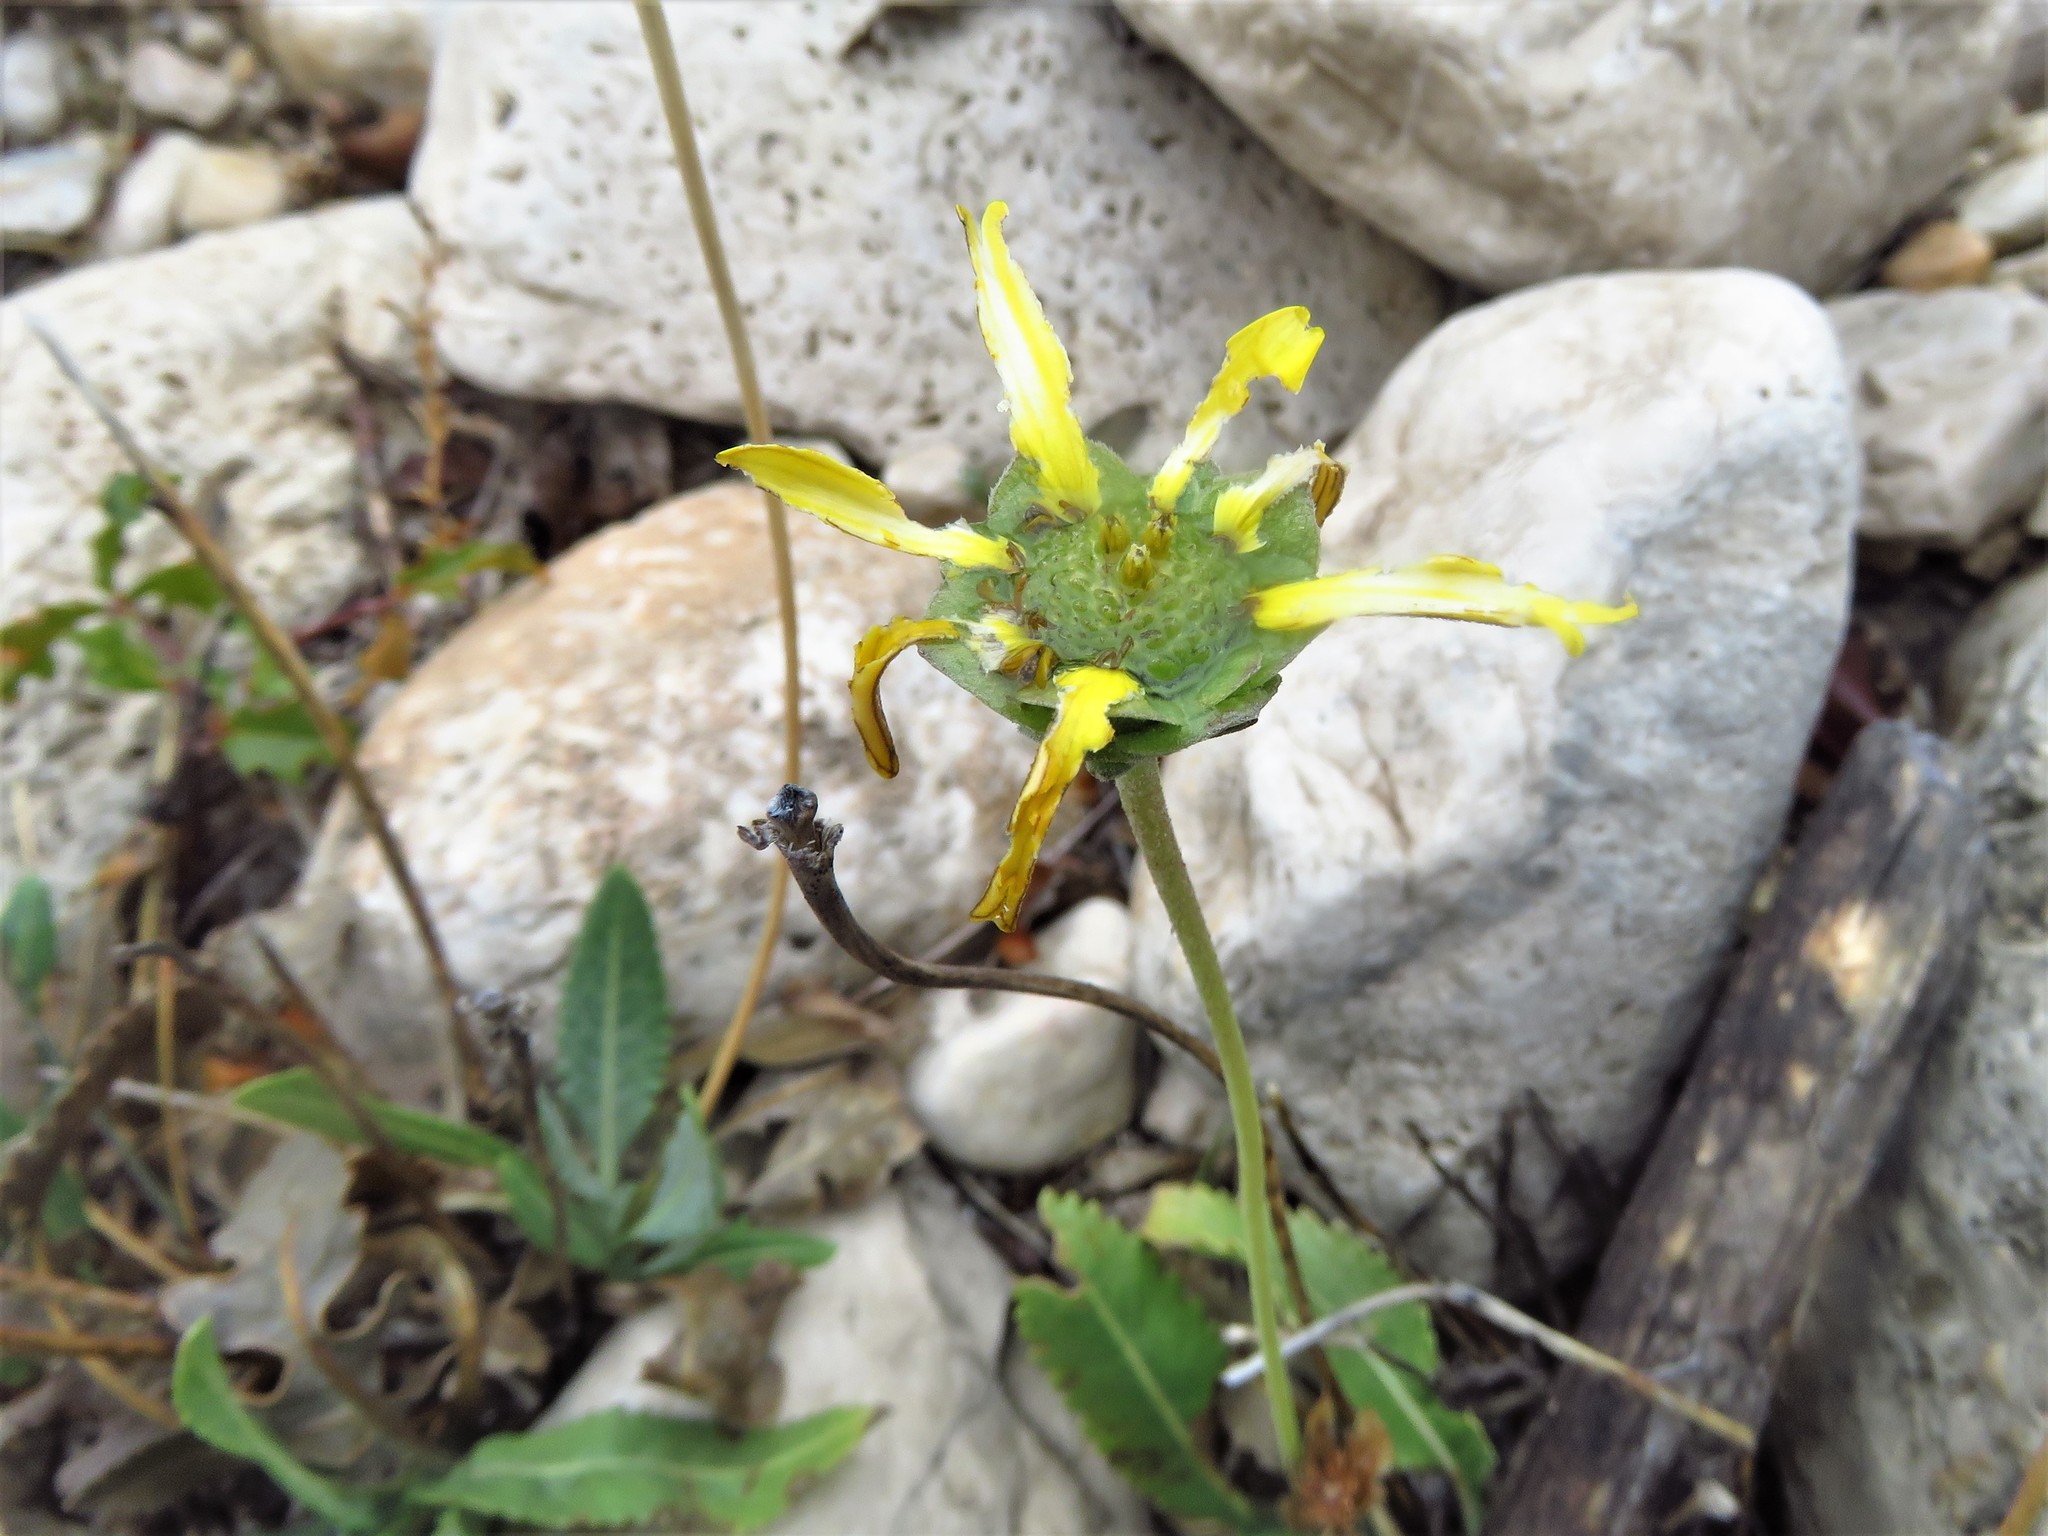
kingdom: Plantae
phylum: Tracheophyta
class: Magnoliopsida
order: Asterales
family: Asteraceae
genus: Berlandiera
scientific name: Berlandiera macvaughii
